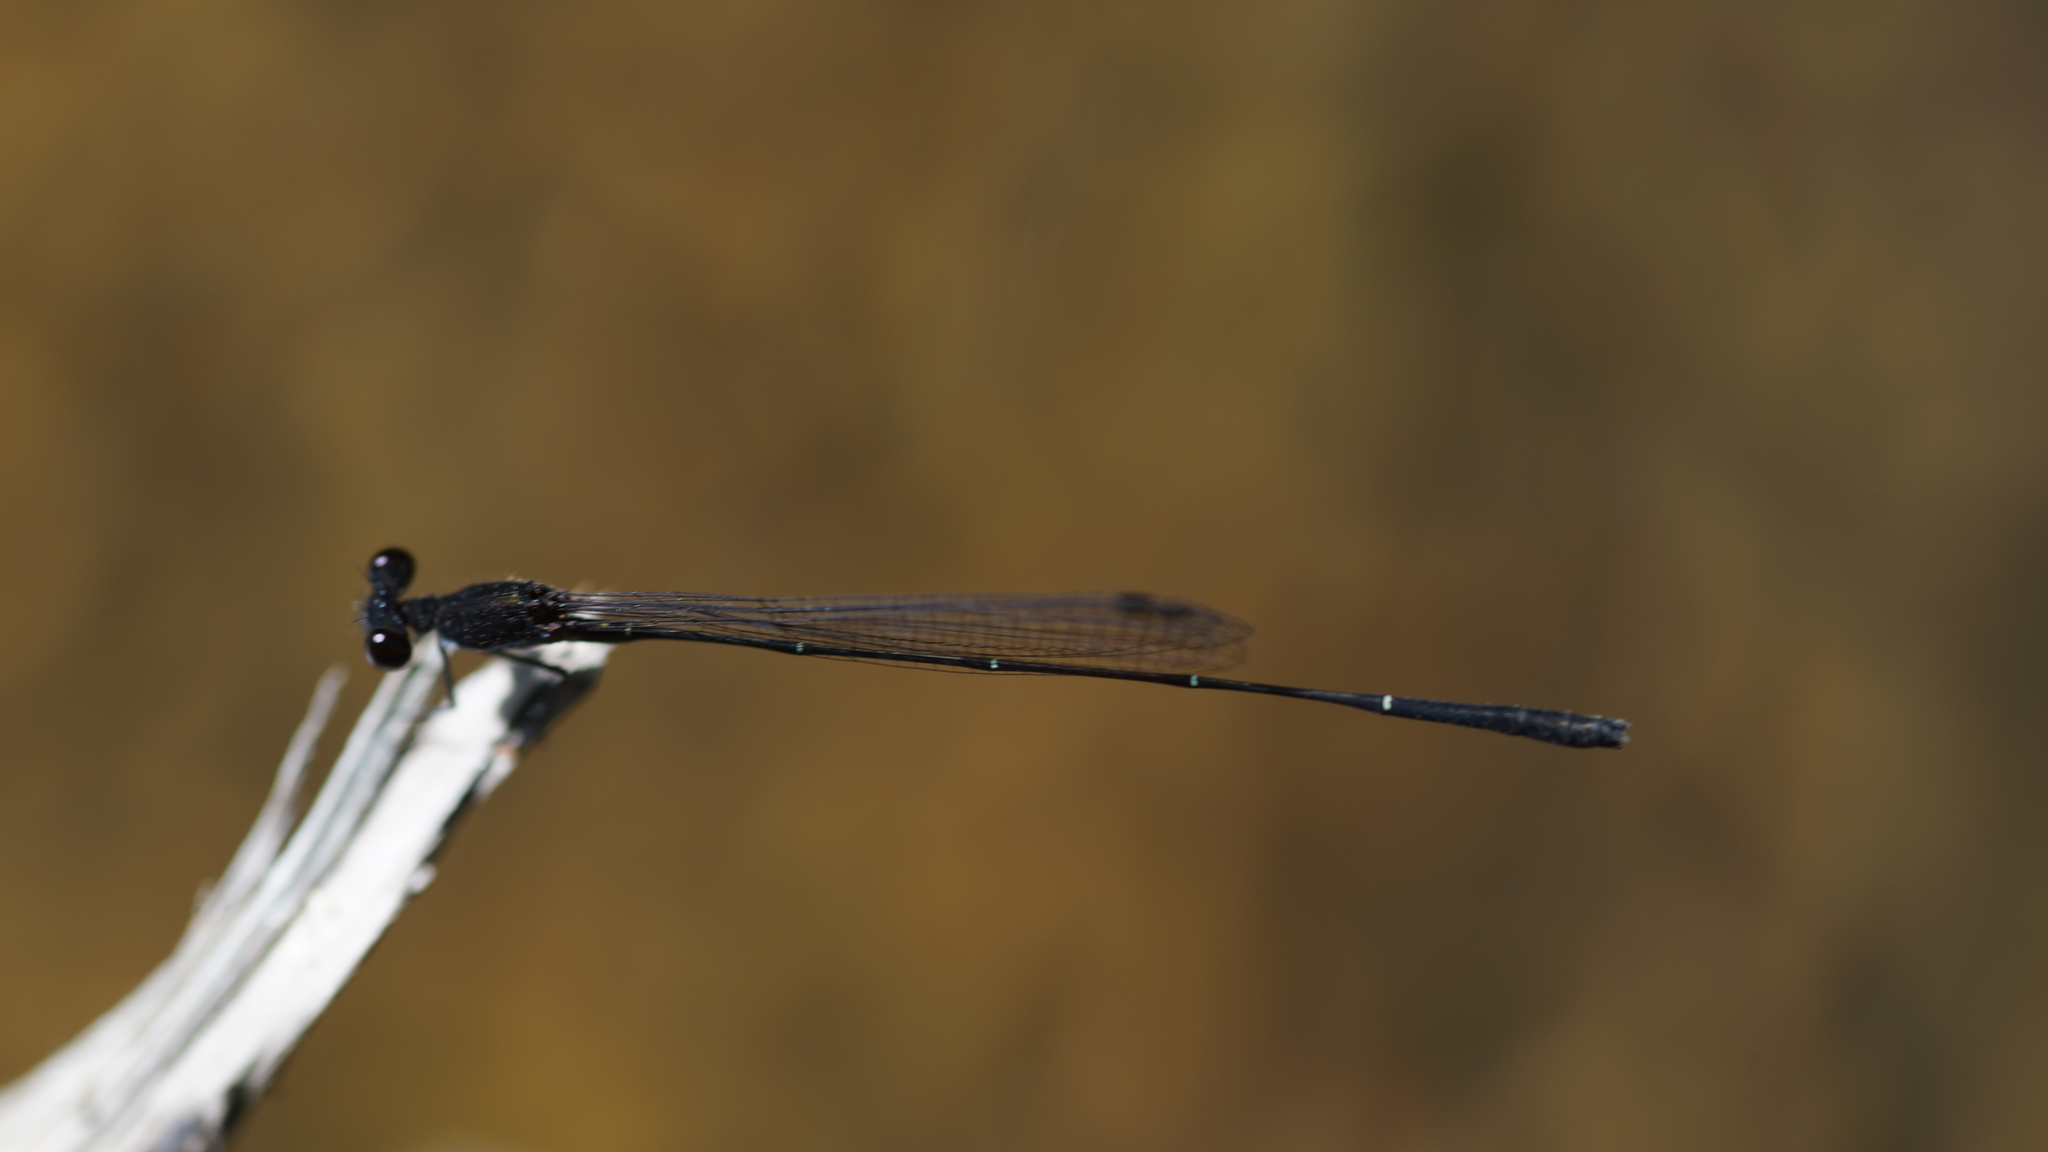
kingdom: Animalia
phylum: Arthropoda
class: Insecta
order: Odonata
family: Platycnemididae
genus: Prodasineura
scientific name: Prodasineura autumnalis
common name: Black threadtail
